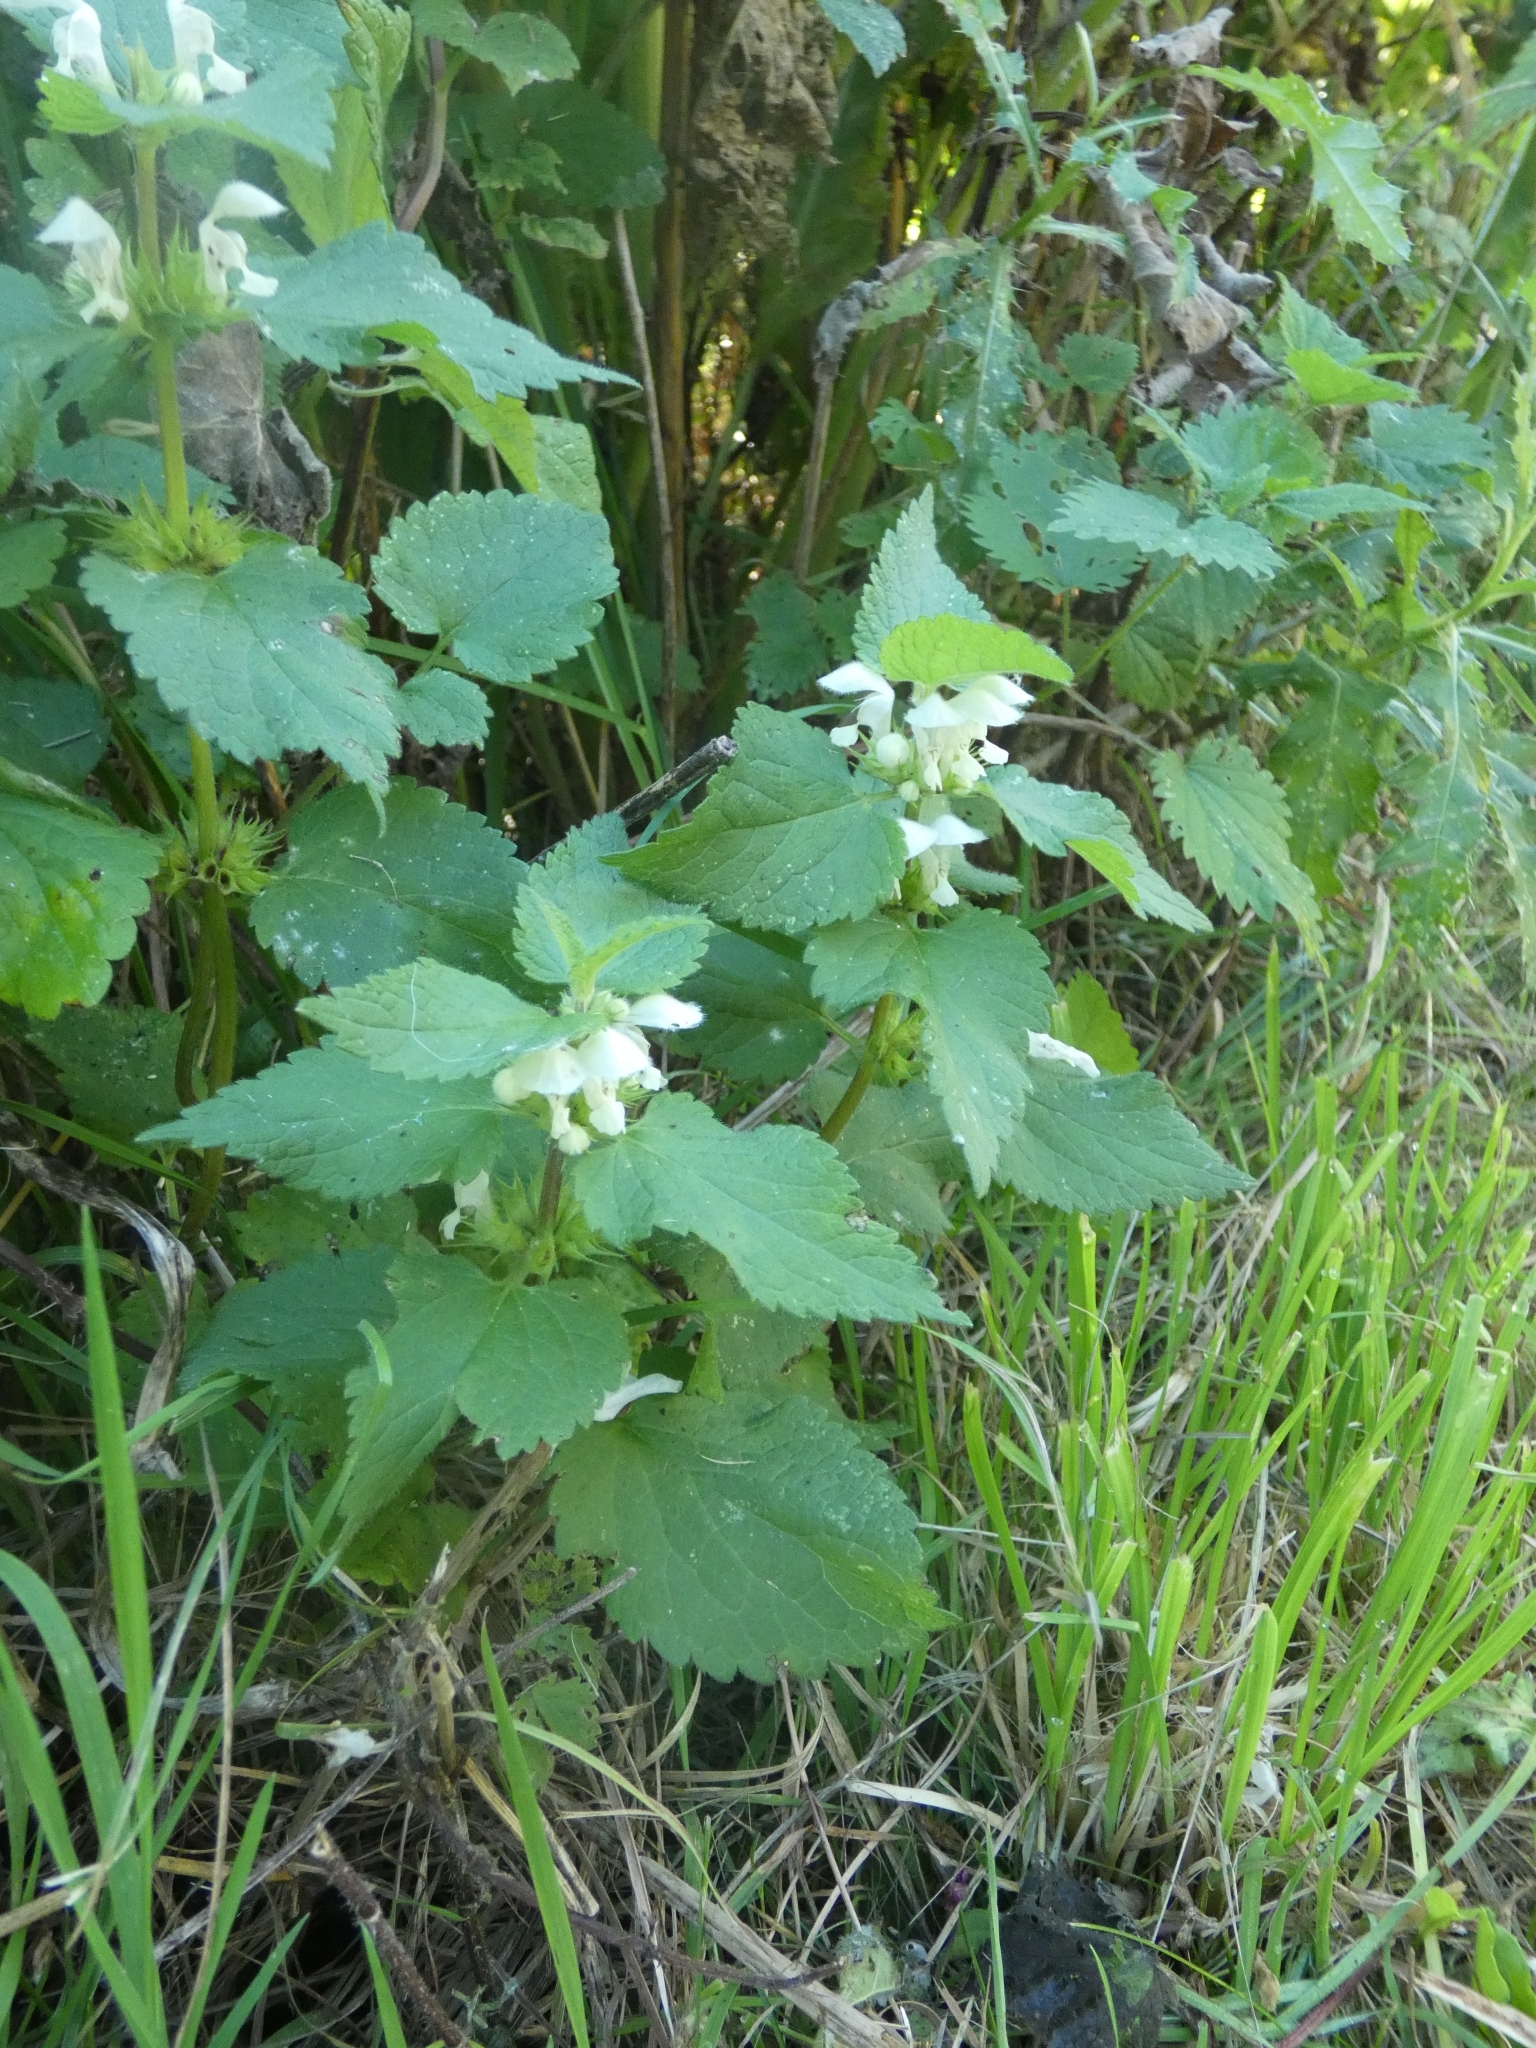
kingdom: Plantae
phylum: Tracheophyta
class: Magnoliopsida
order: Lamiales
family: Lamiaceae
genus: Lamium
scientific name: Lamium album
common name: White dead-nettle
